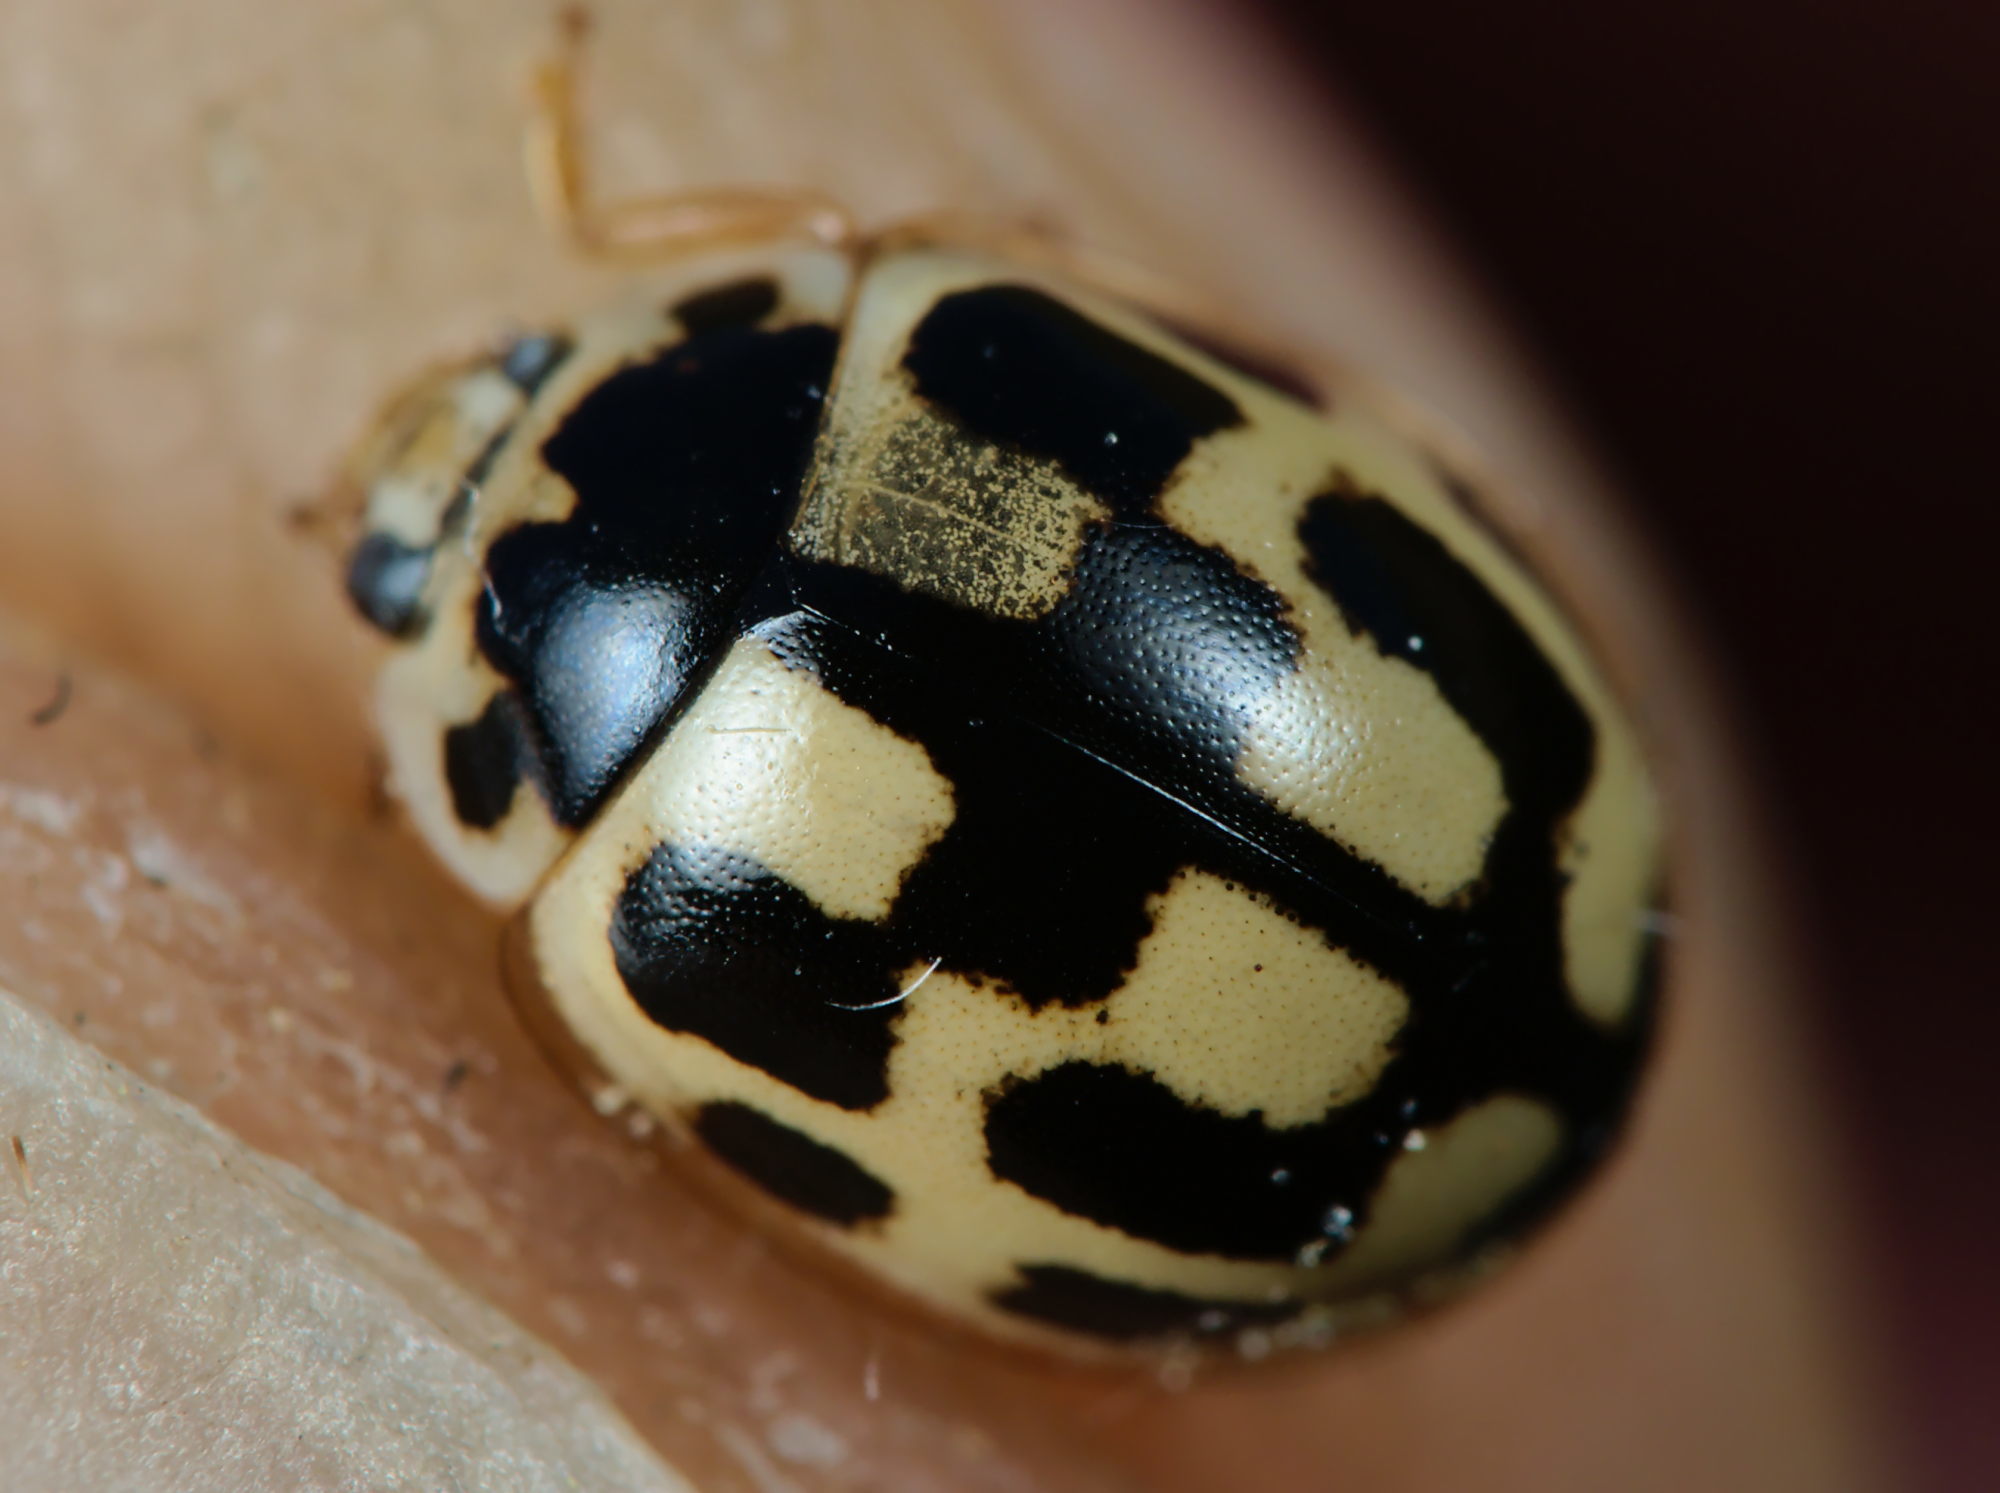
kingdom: Animalia
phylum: Arthropoda
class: Insecta
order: Coleoptera
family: Coccinellidae
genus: Propylaea
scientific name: Propylaea quatuordecimpunctata
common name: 14-spotted ladybird beetle
